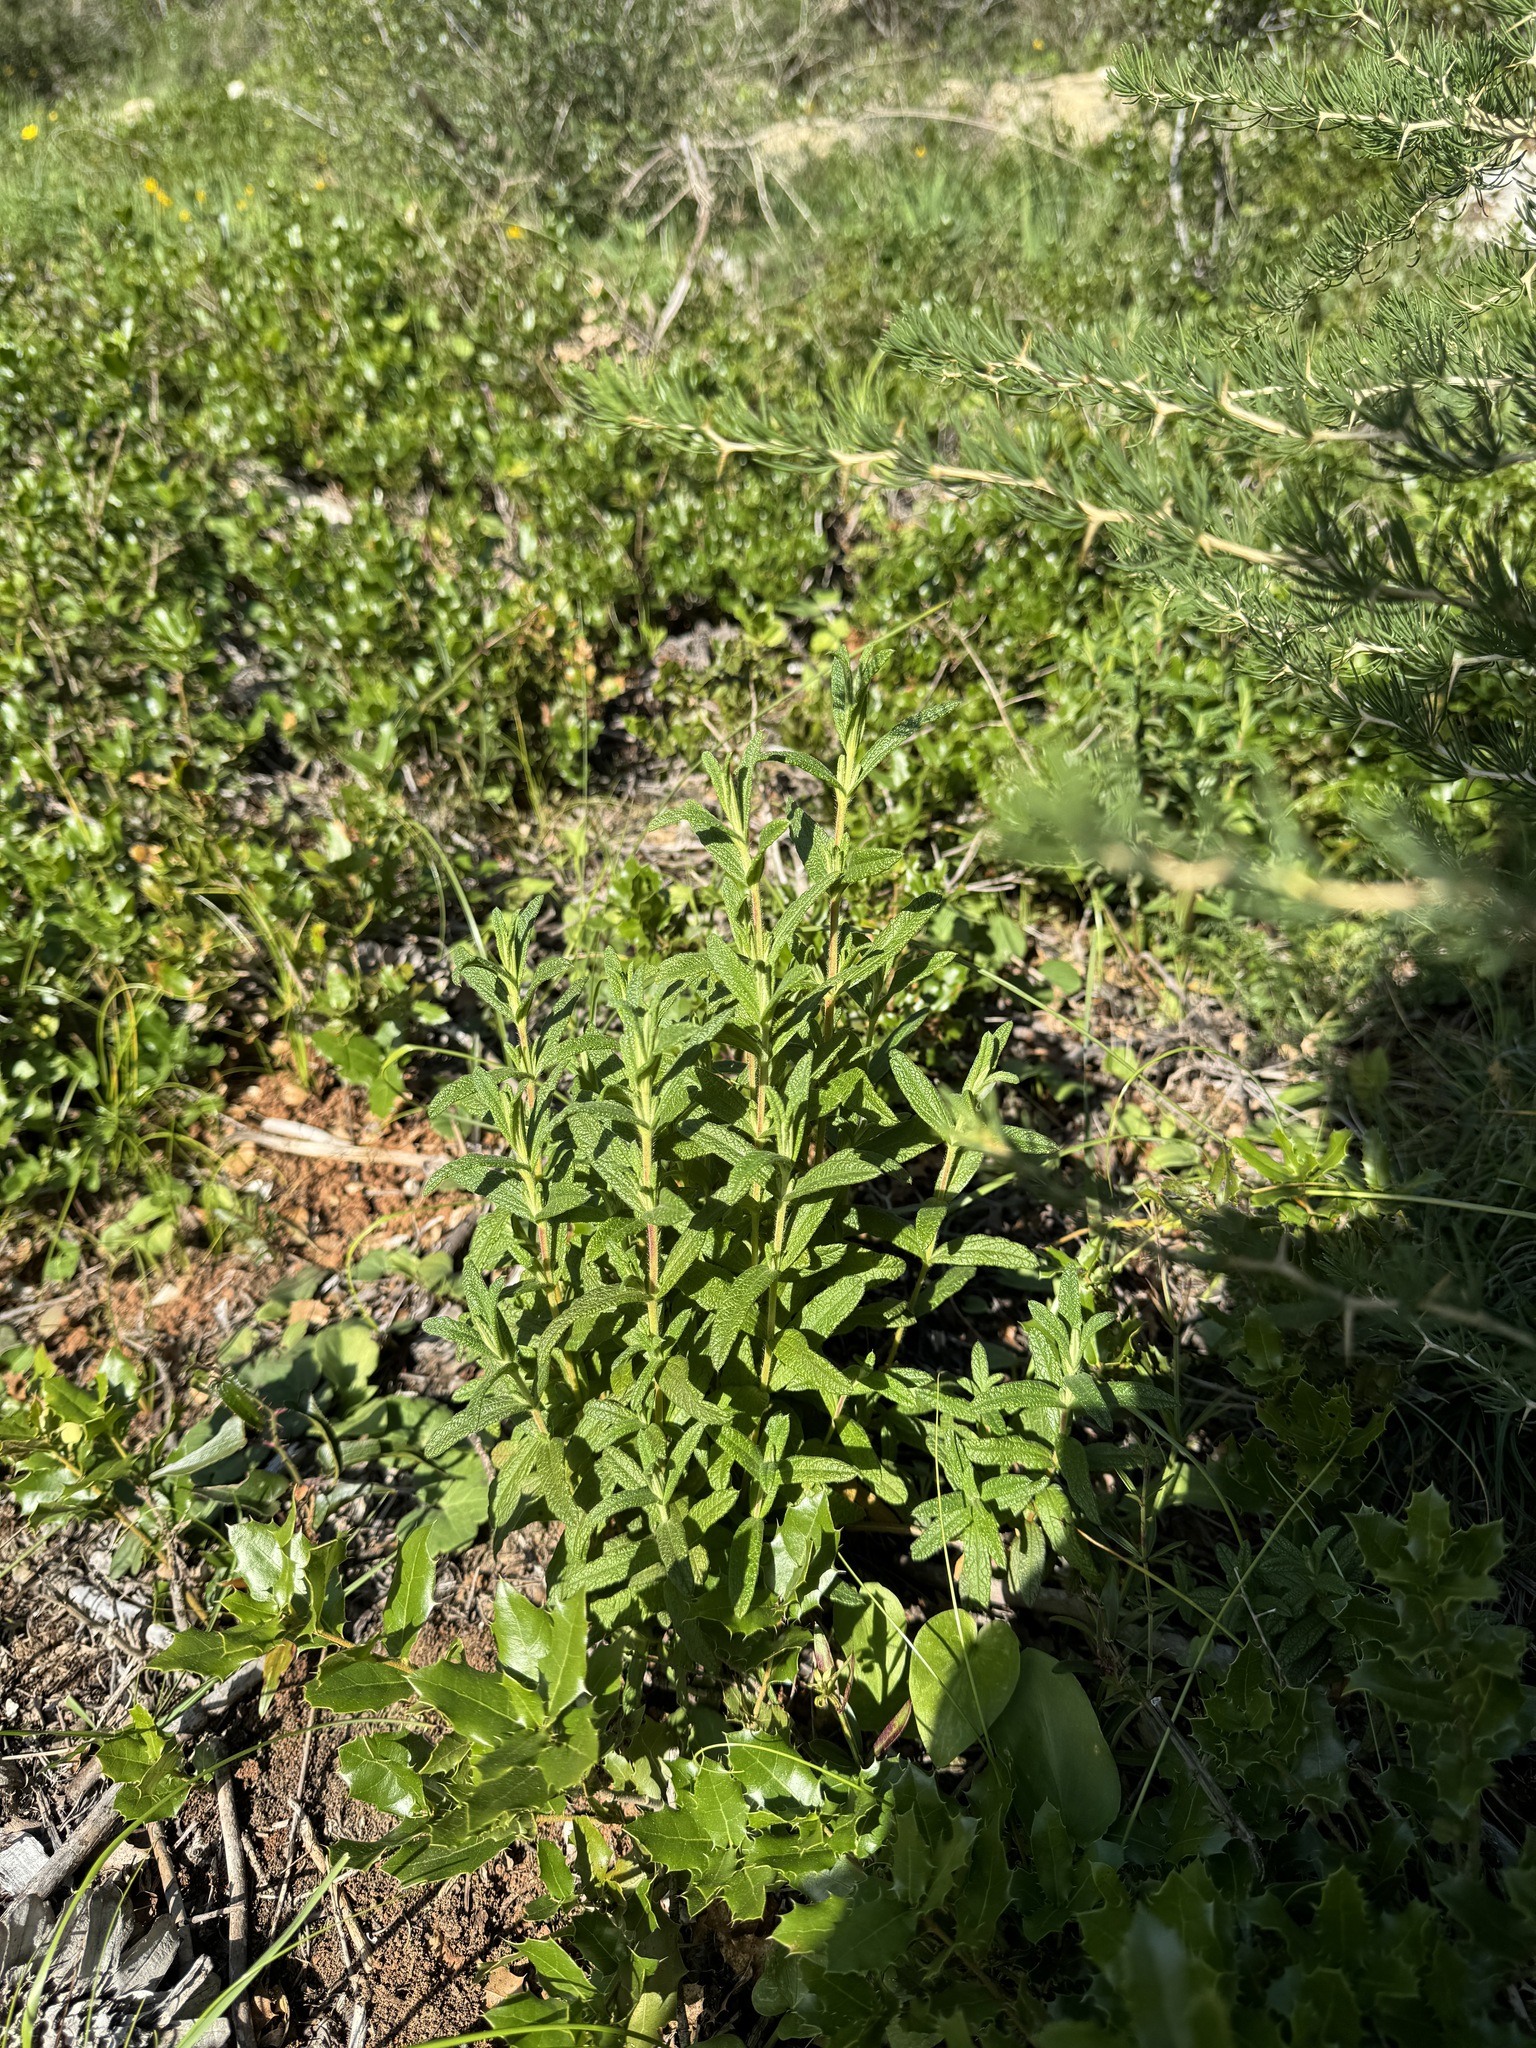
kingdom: Plantae
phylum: Tracheophyta
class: Magnoliopsida
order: Malvales
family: Cistaceae
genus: Cistus
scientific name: Cistus monspeliensis
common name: Montpelier cistus
